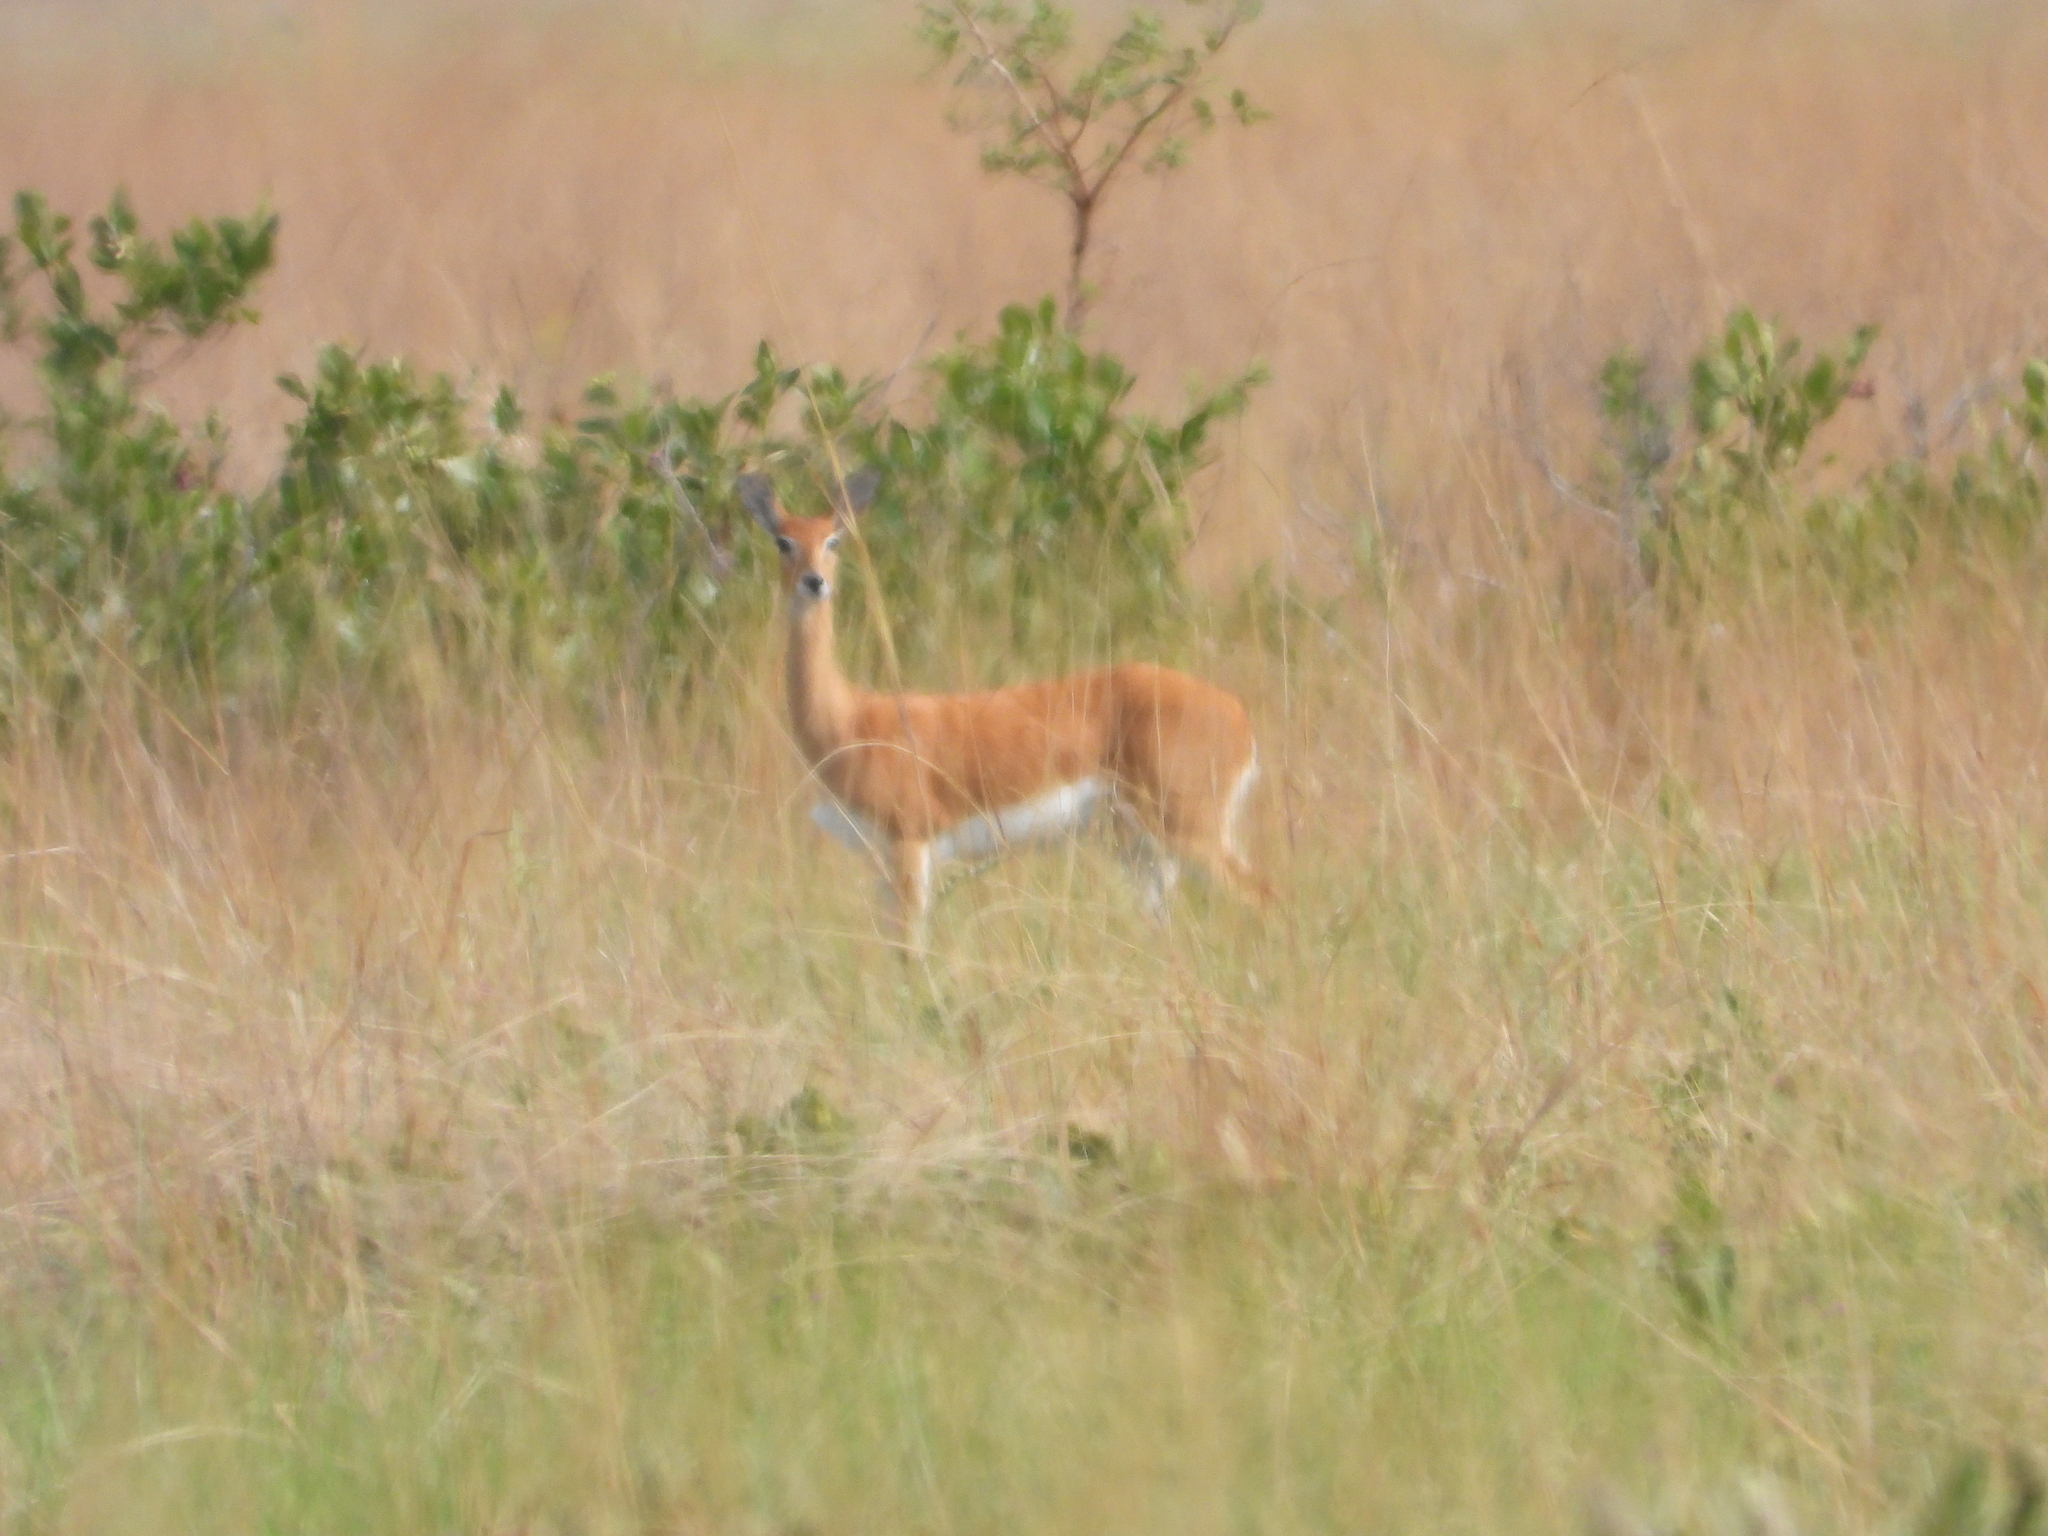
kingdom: Animalia
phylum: Chordata
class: Mammalia
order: Artiodactyla
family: Bovidae
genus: Ourebia
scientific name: Ourebia ourebi
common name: Oribi
